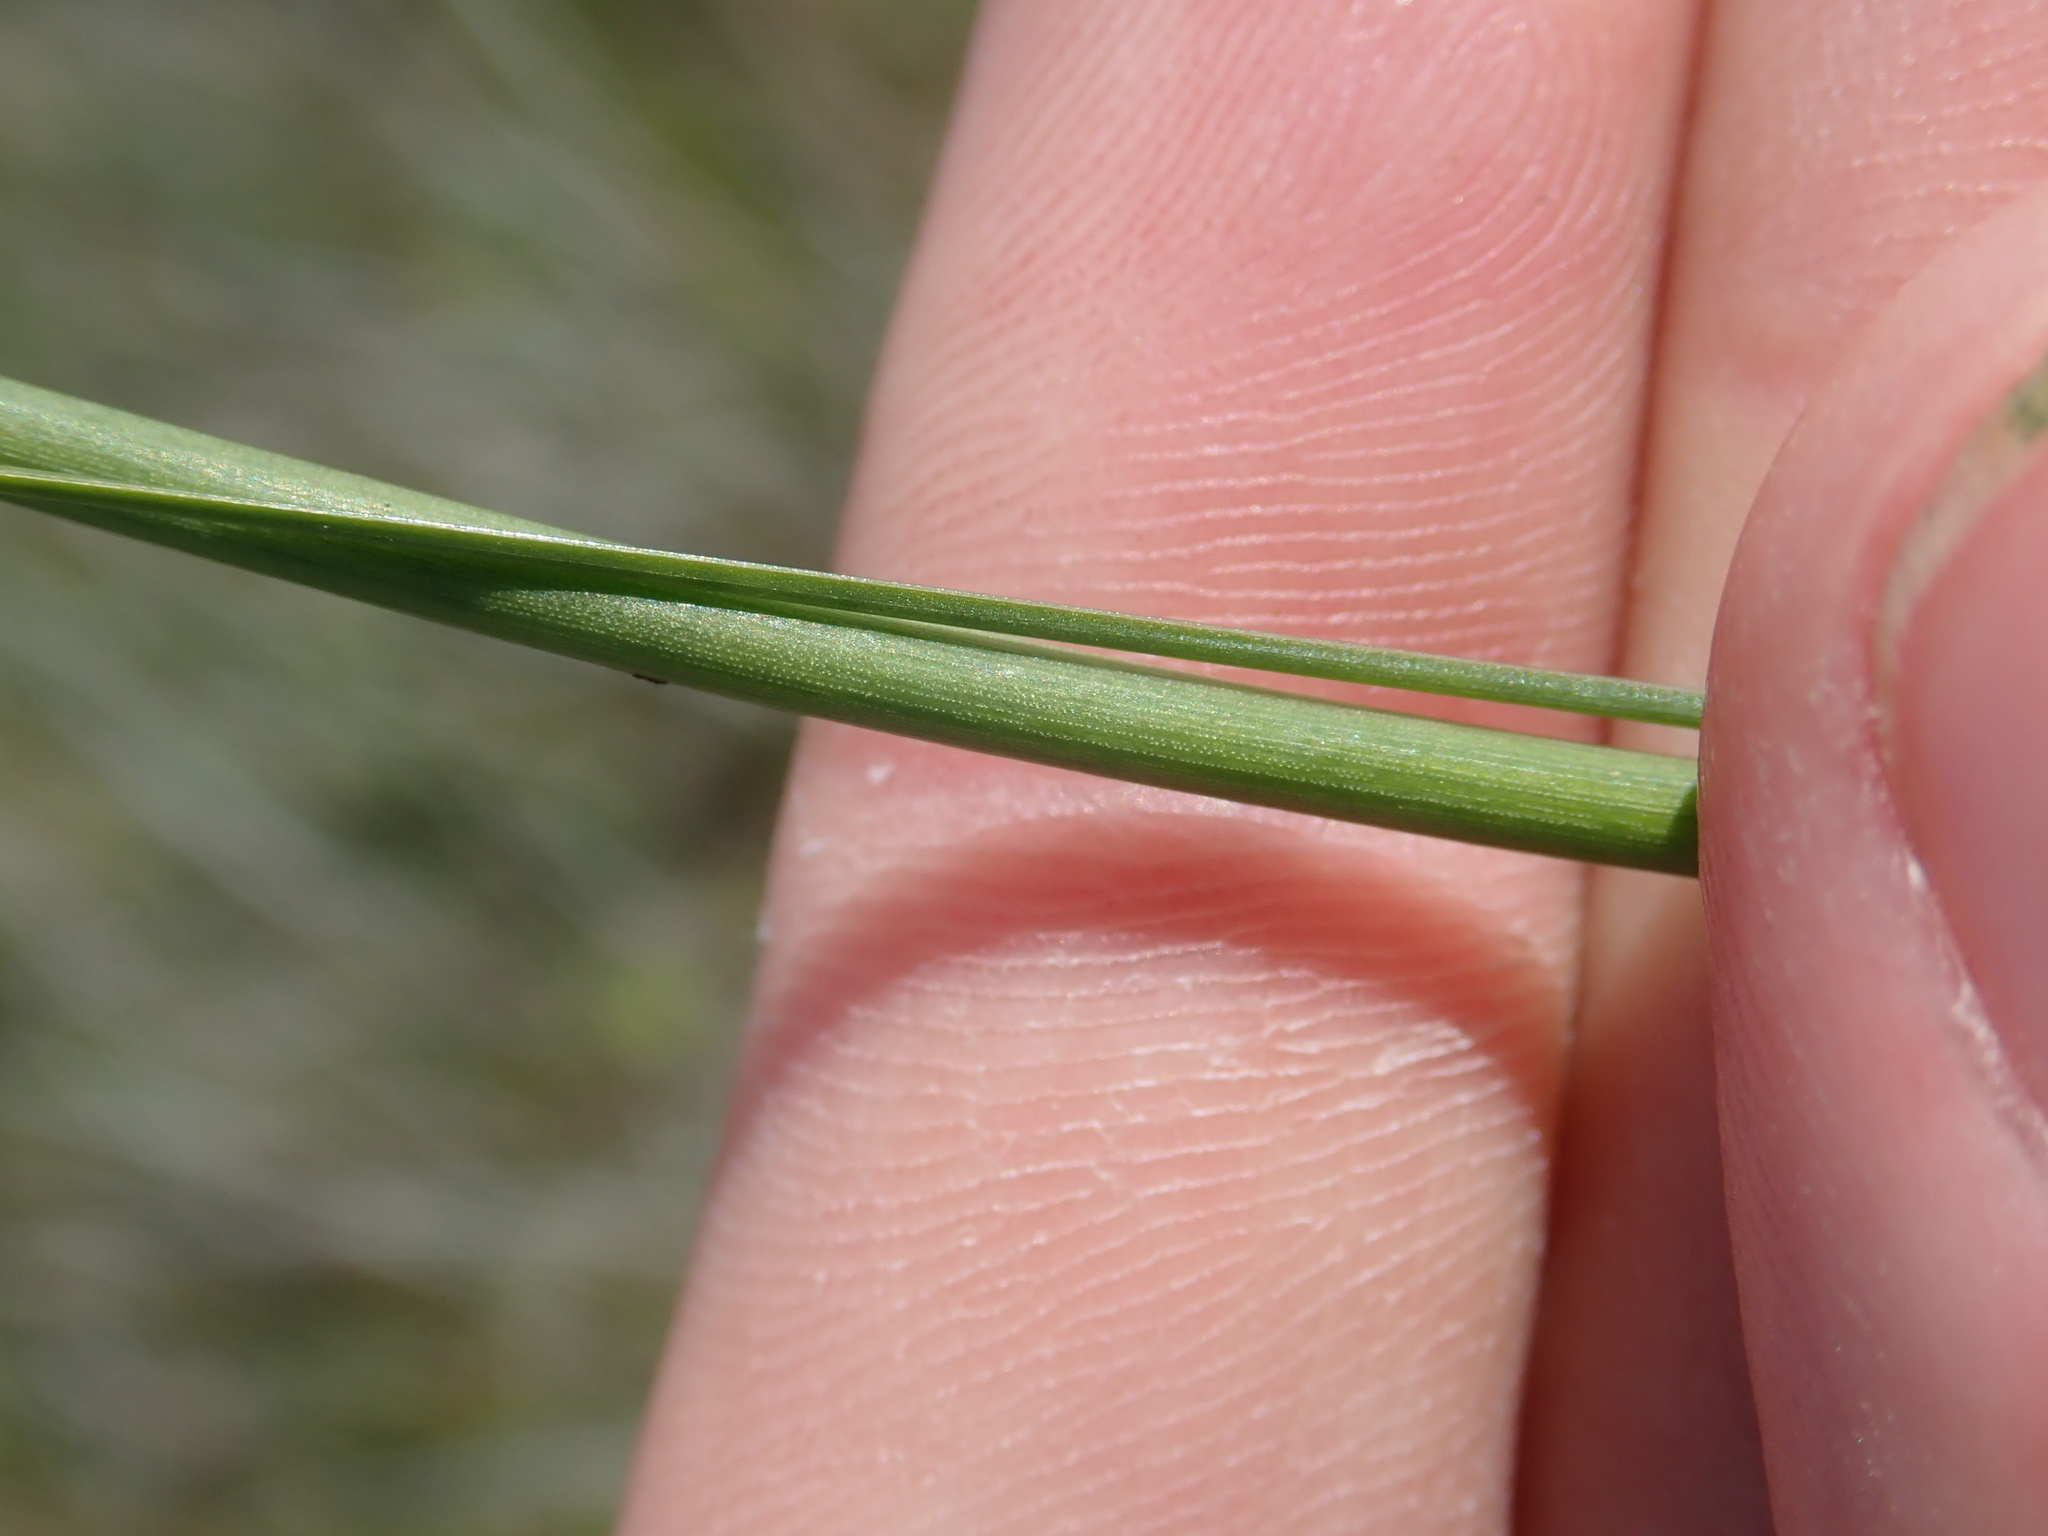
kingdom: Plantae
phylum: Tracheophyta
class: Liliopsida
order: Alismatales
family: Juncaginaceae
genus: Triglochin
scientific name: Triglochin maritima
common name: Sea arrowgrass
